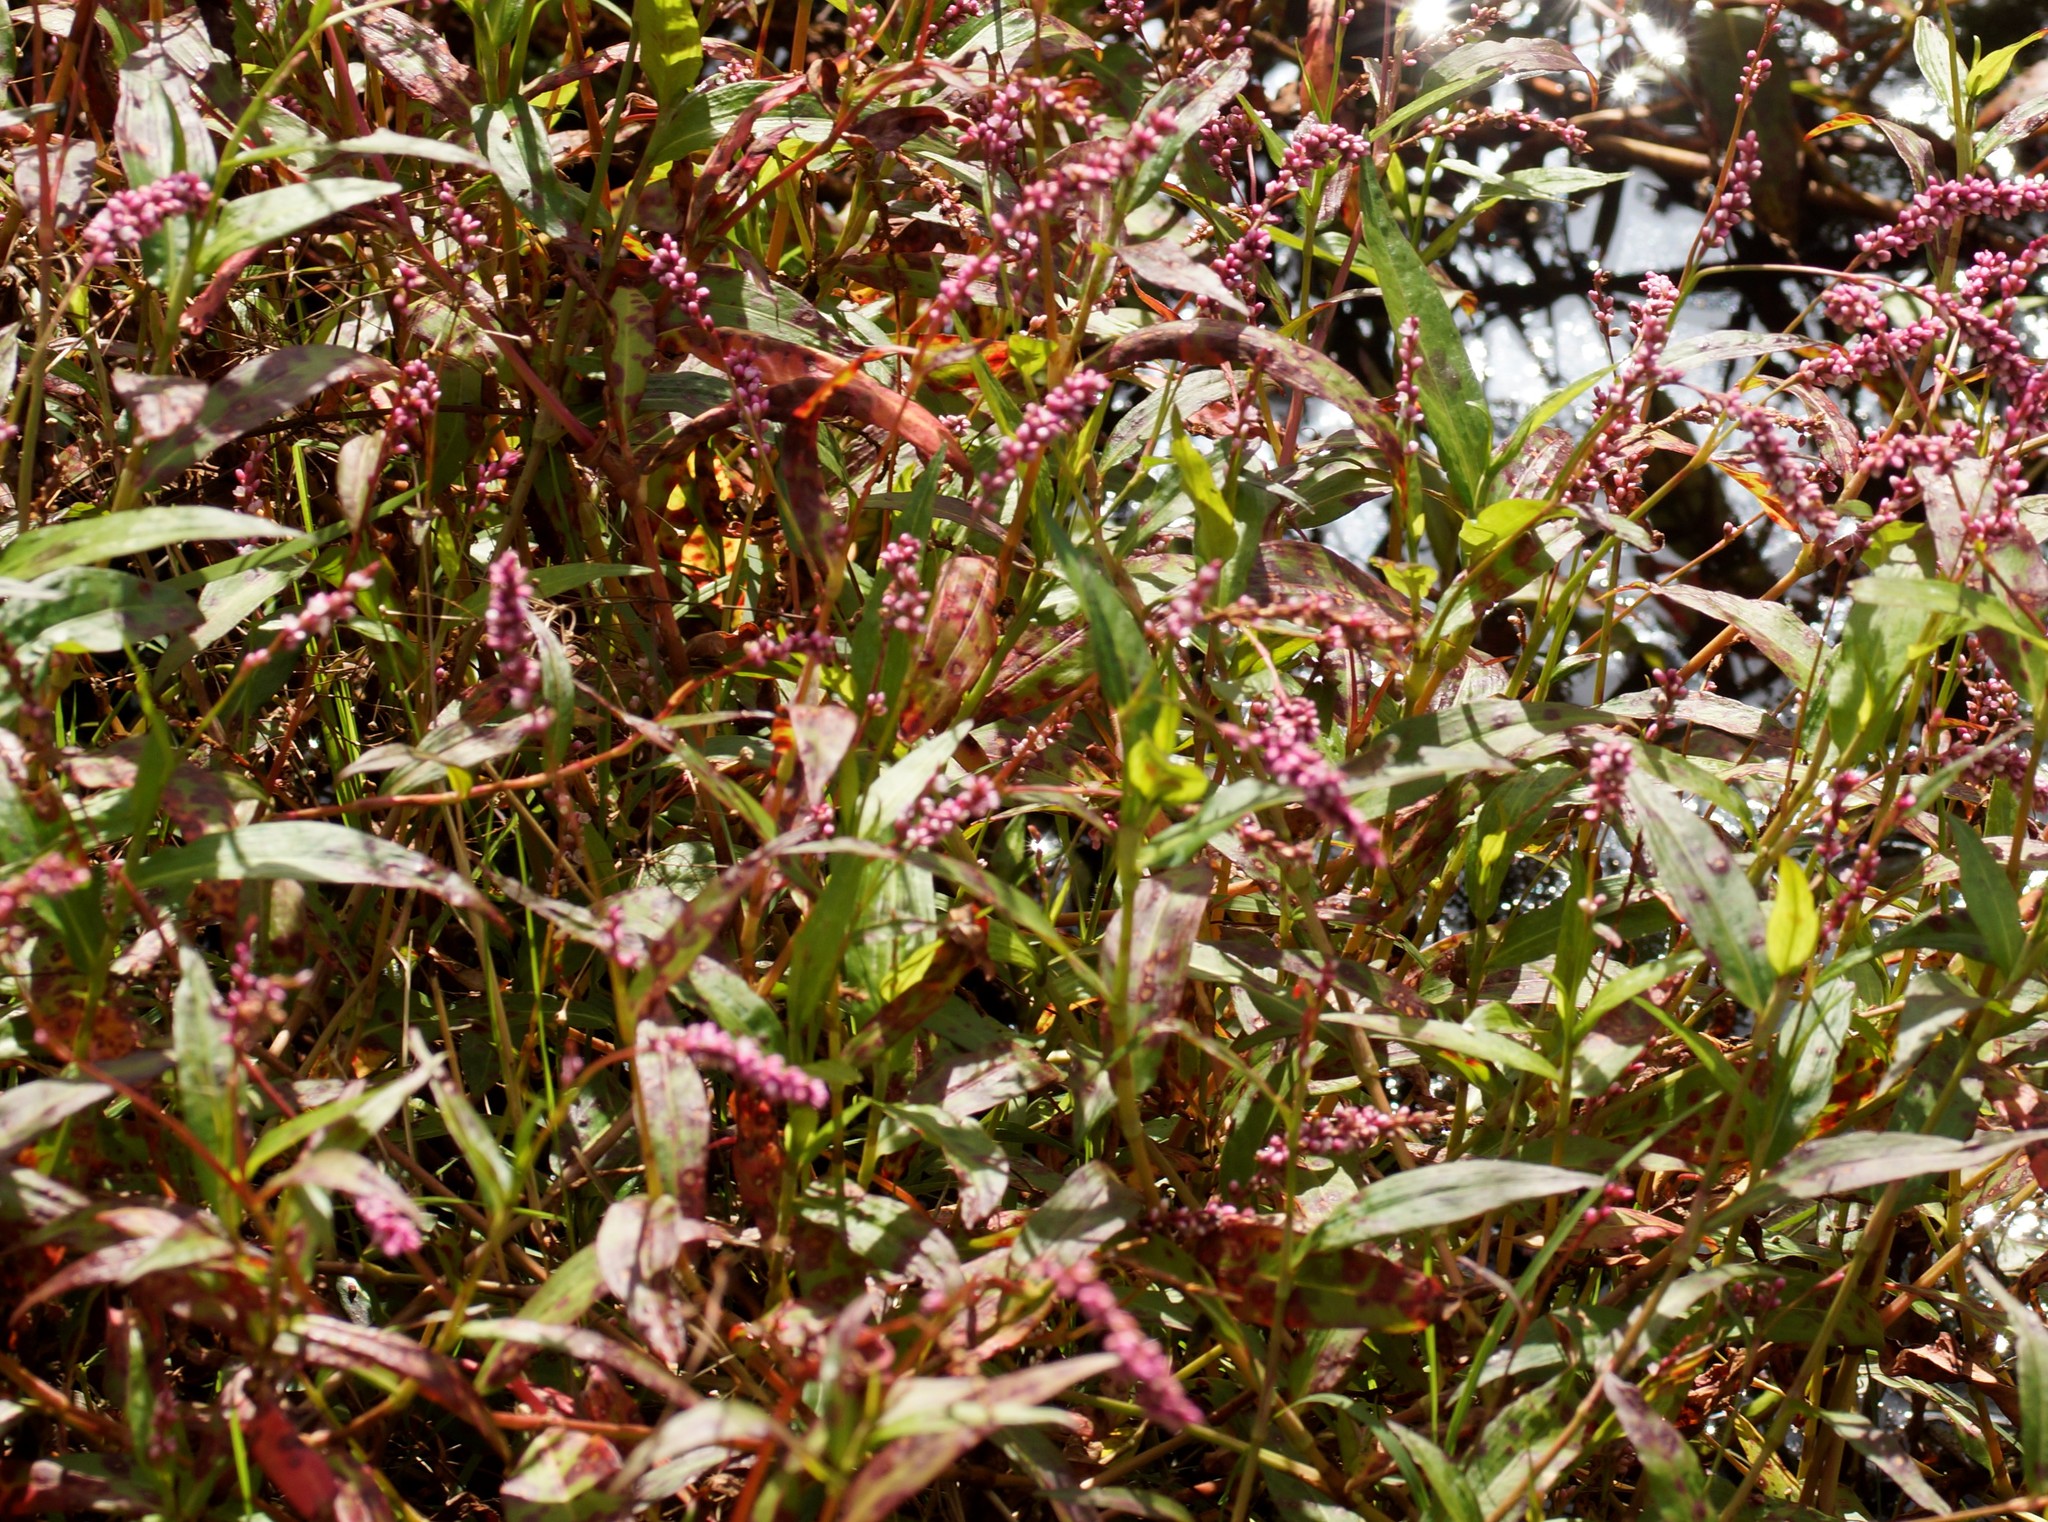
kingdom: Plantae
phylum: Tracheophyta
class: Magnoliopsida
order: Caryophyllales
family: Polygonaceae
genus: Persicaria
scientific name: Persicaria decipiens
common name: Willow-weed
